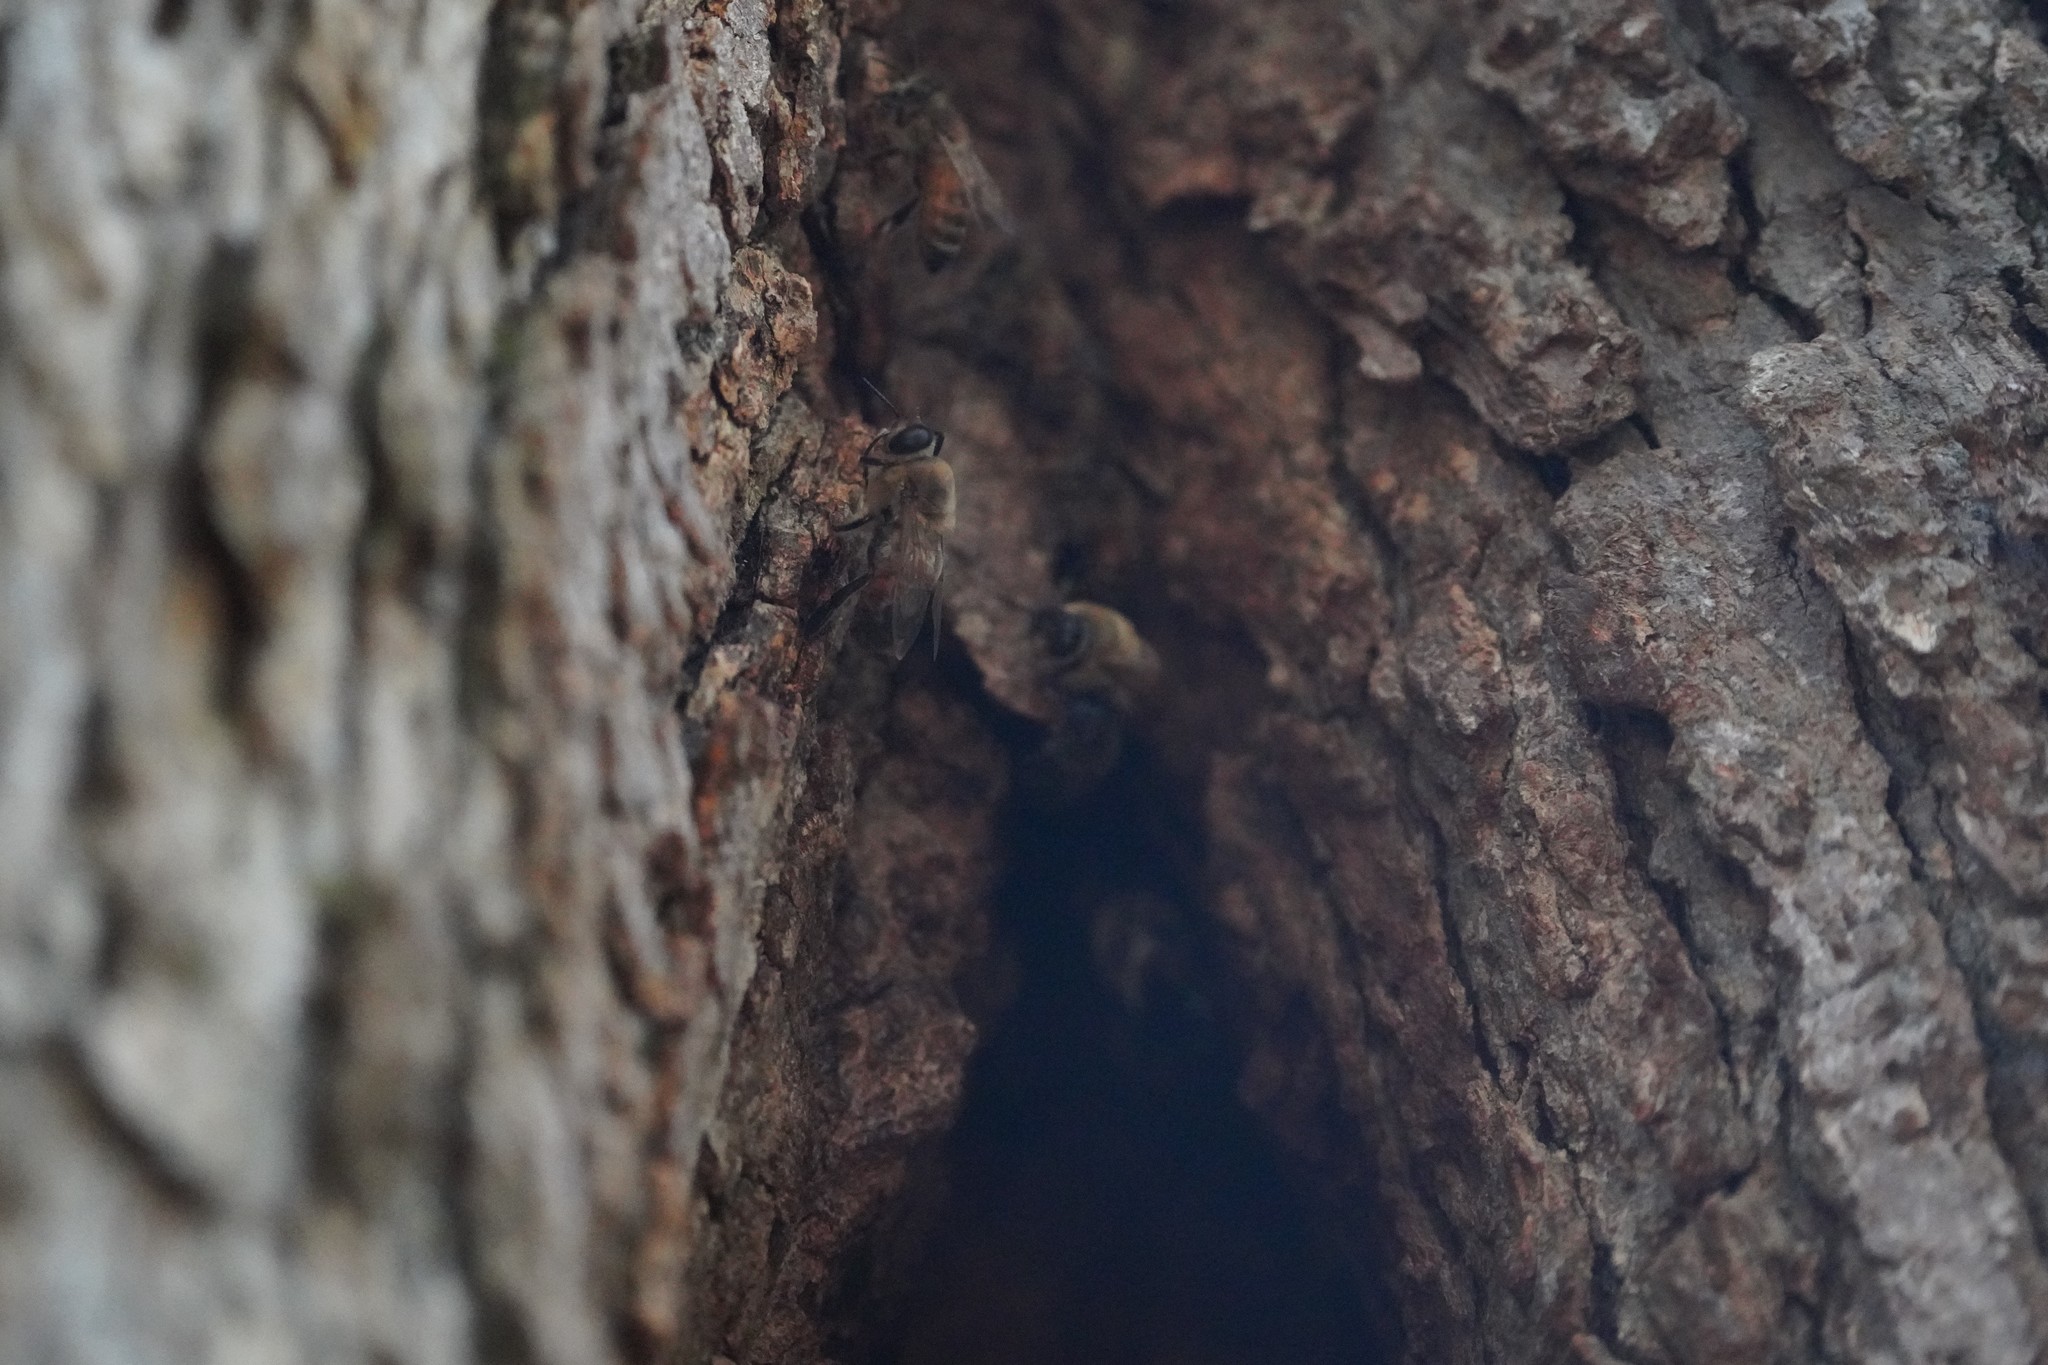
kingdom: Animalia
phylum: Arthropoda
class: Insecta
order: Hymenoptera
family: Apidae
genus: Apis
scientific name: Apis mellifera
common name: Honey bee
